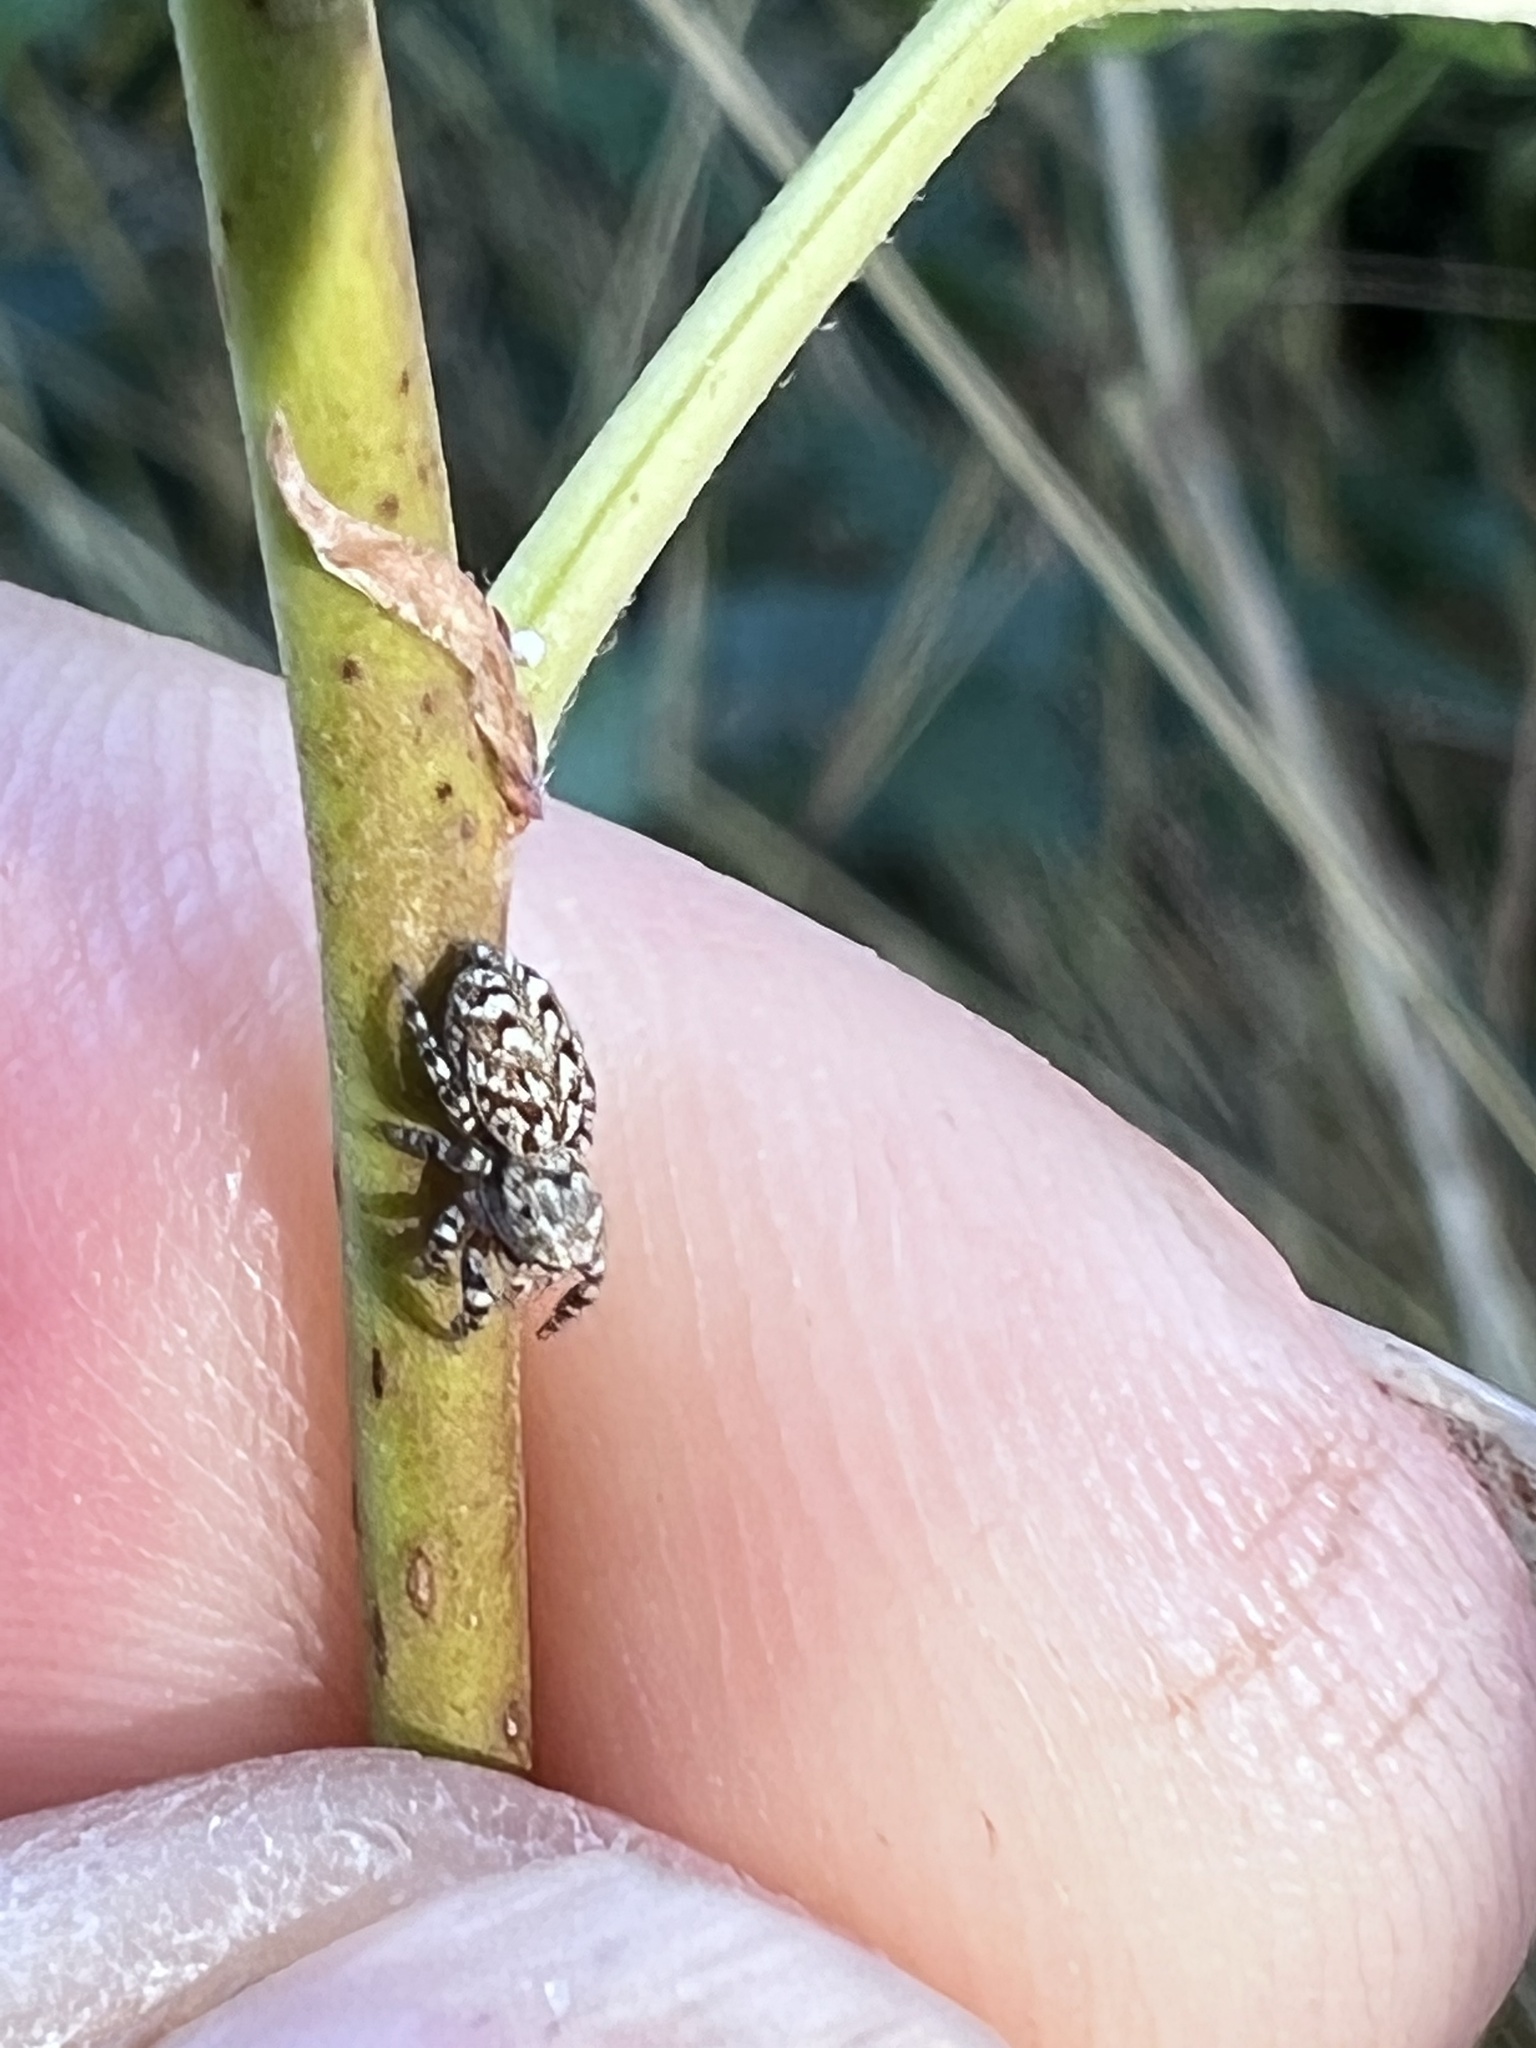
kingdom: Animalia
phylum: Arthropoda
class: Arachnida
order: Araneae
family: Salticidae
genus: Pelegrina
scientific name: Pelegrina galathea
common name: Jumping spiders
